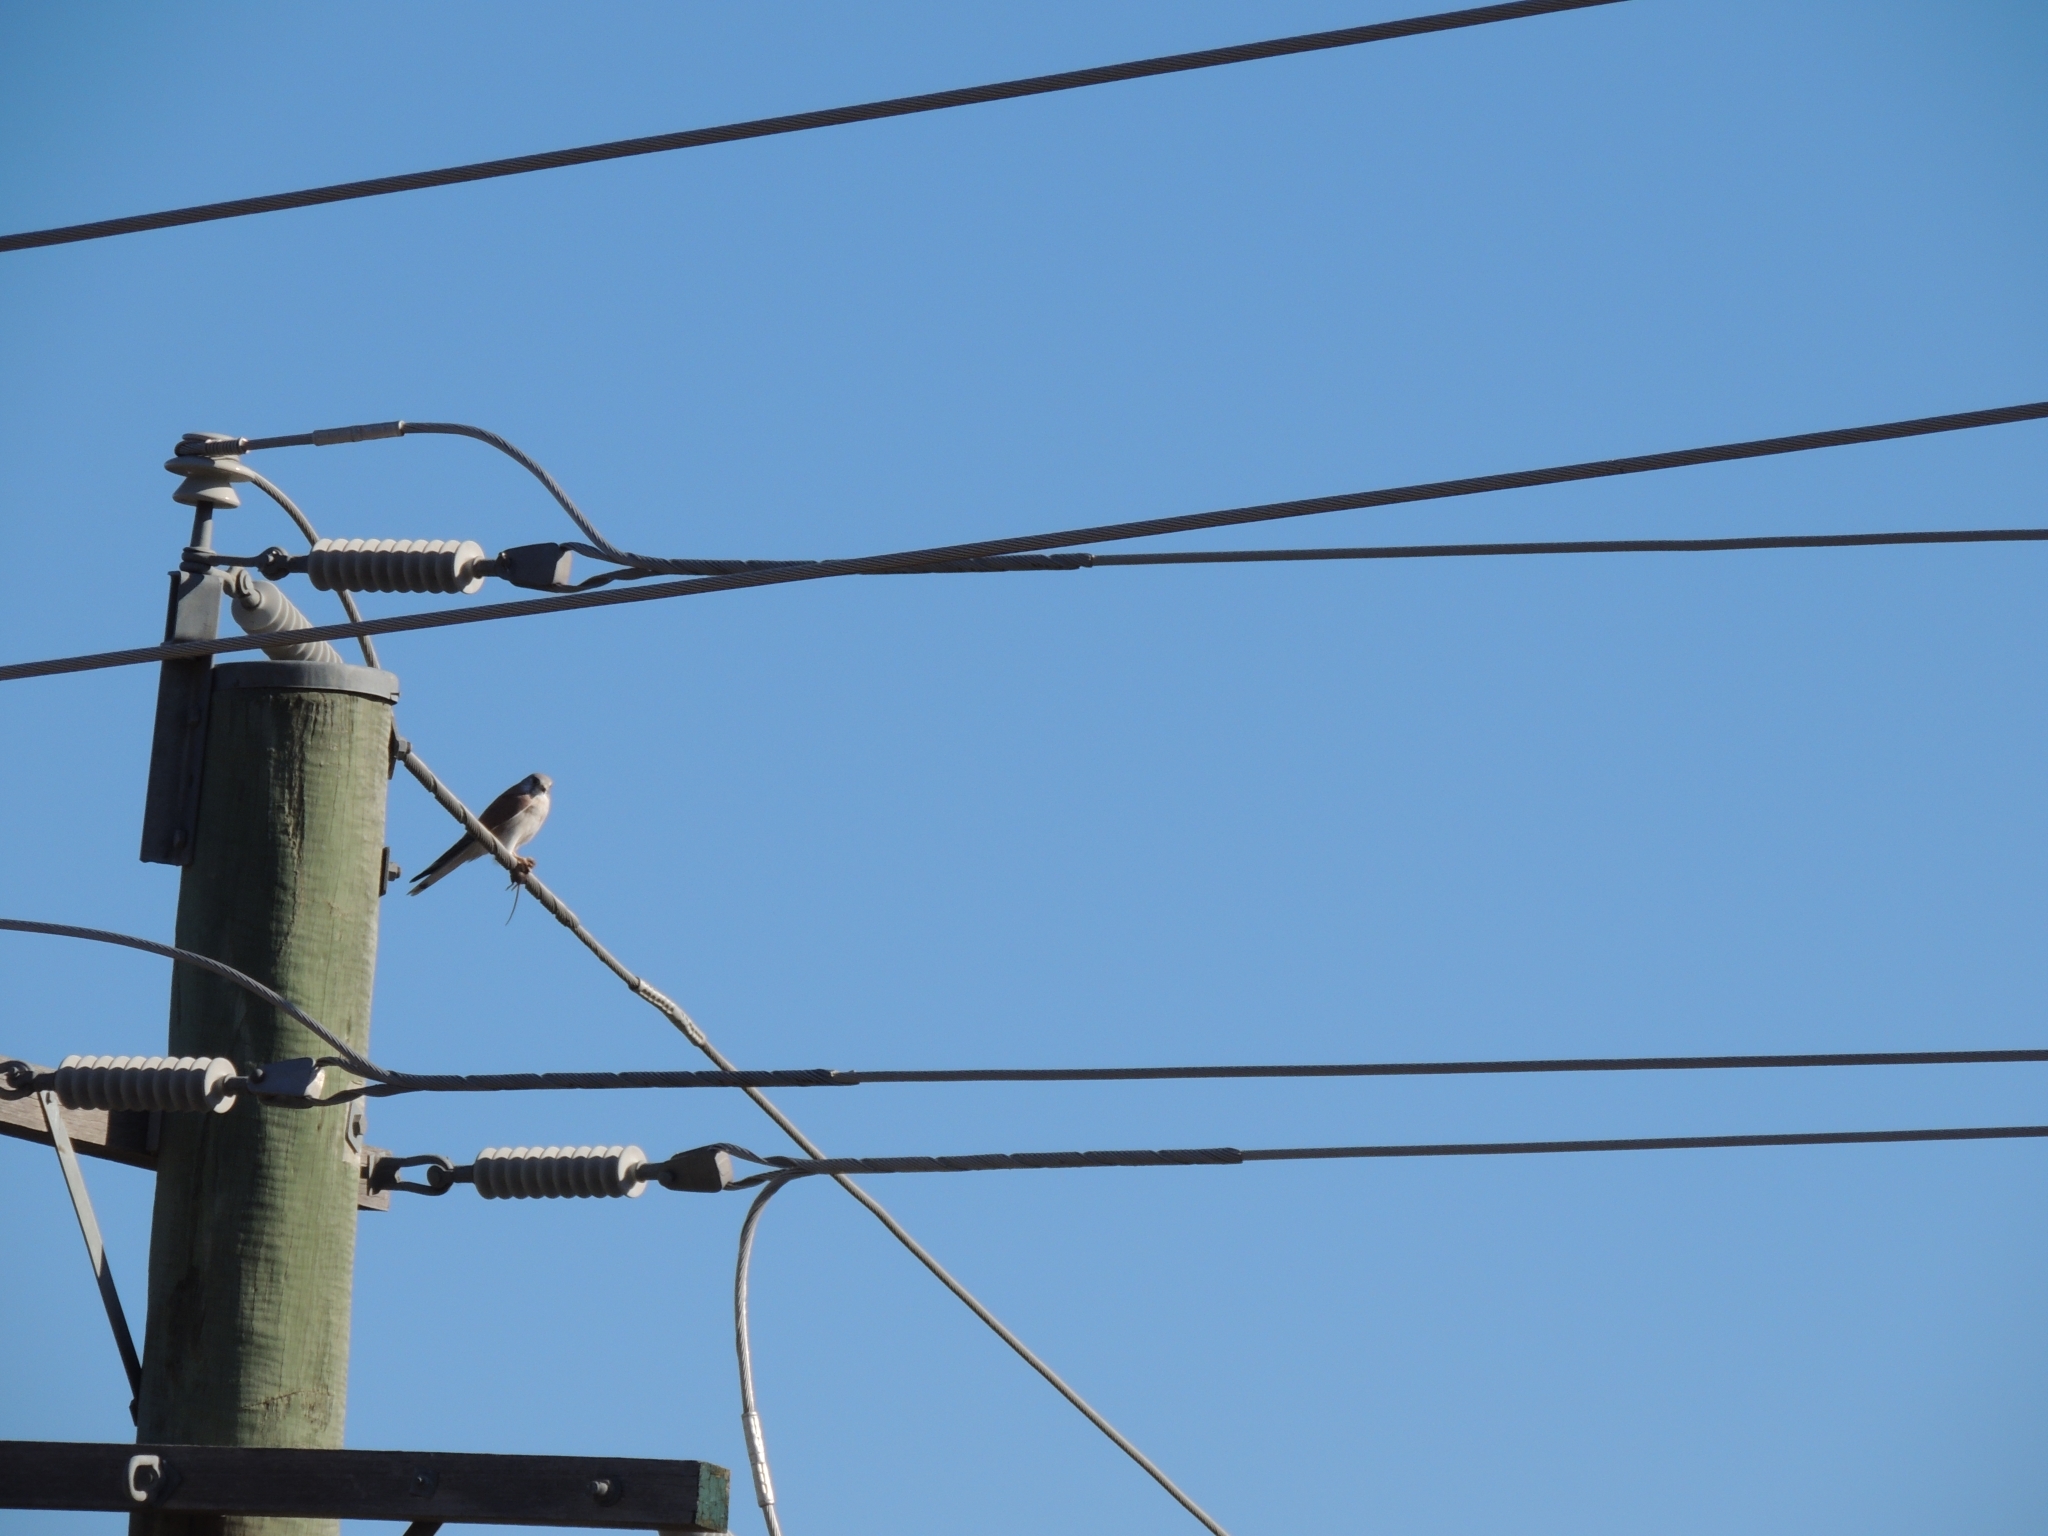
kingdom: Animalia
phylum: Chordata
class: Aves
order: Falconiformes
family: Falconidae
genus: Falco
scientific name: Falco cenchroides
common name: Nankeen kestrel
